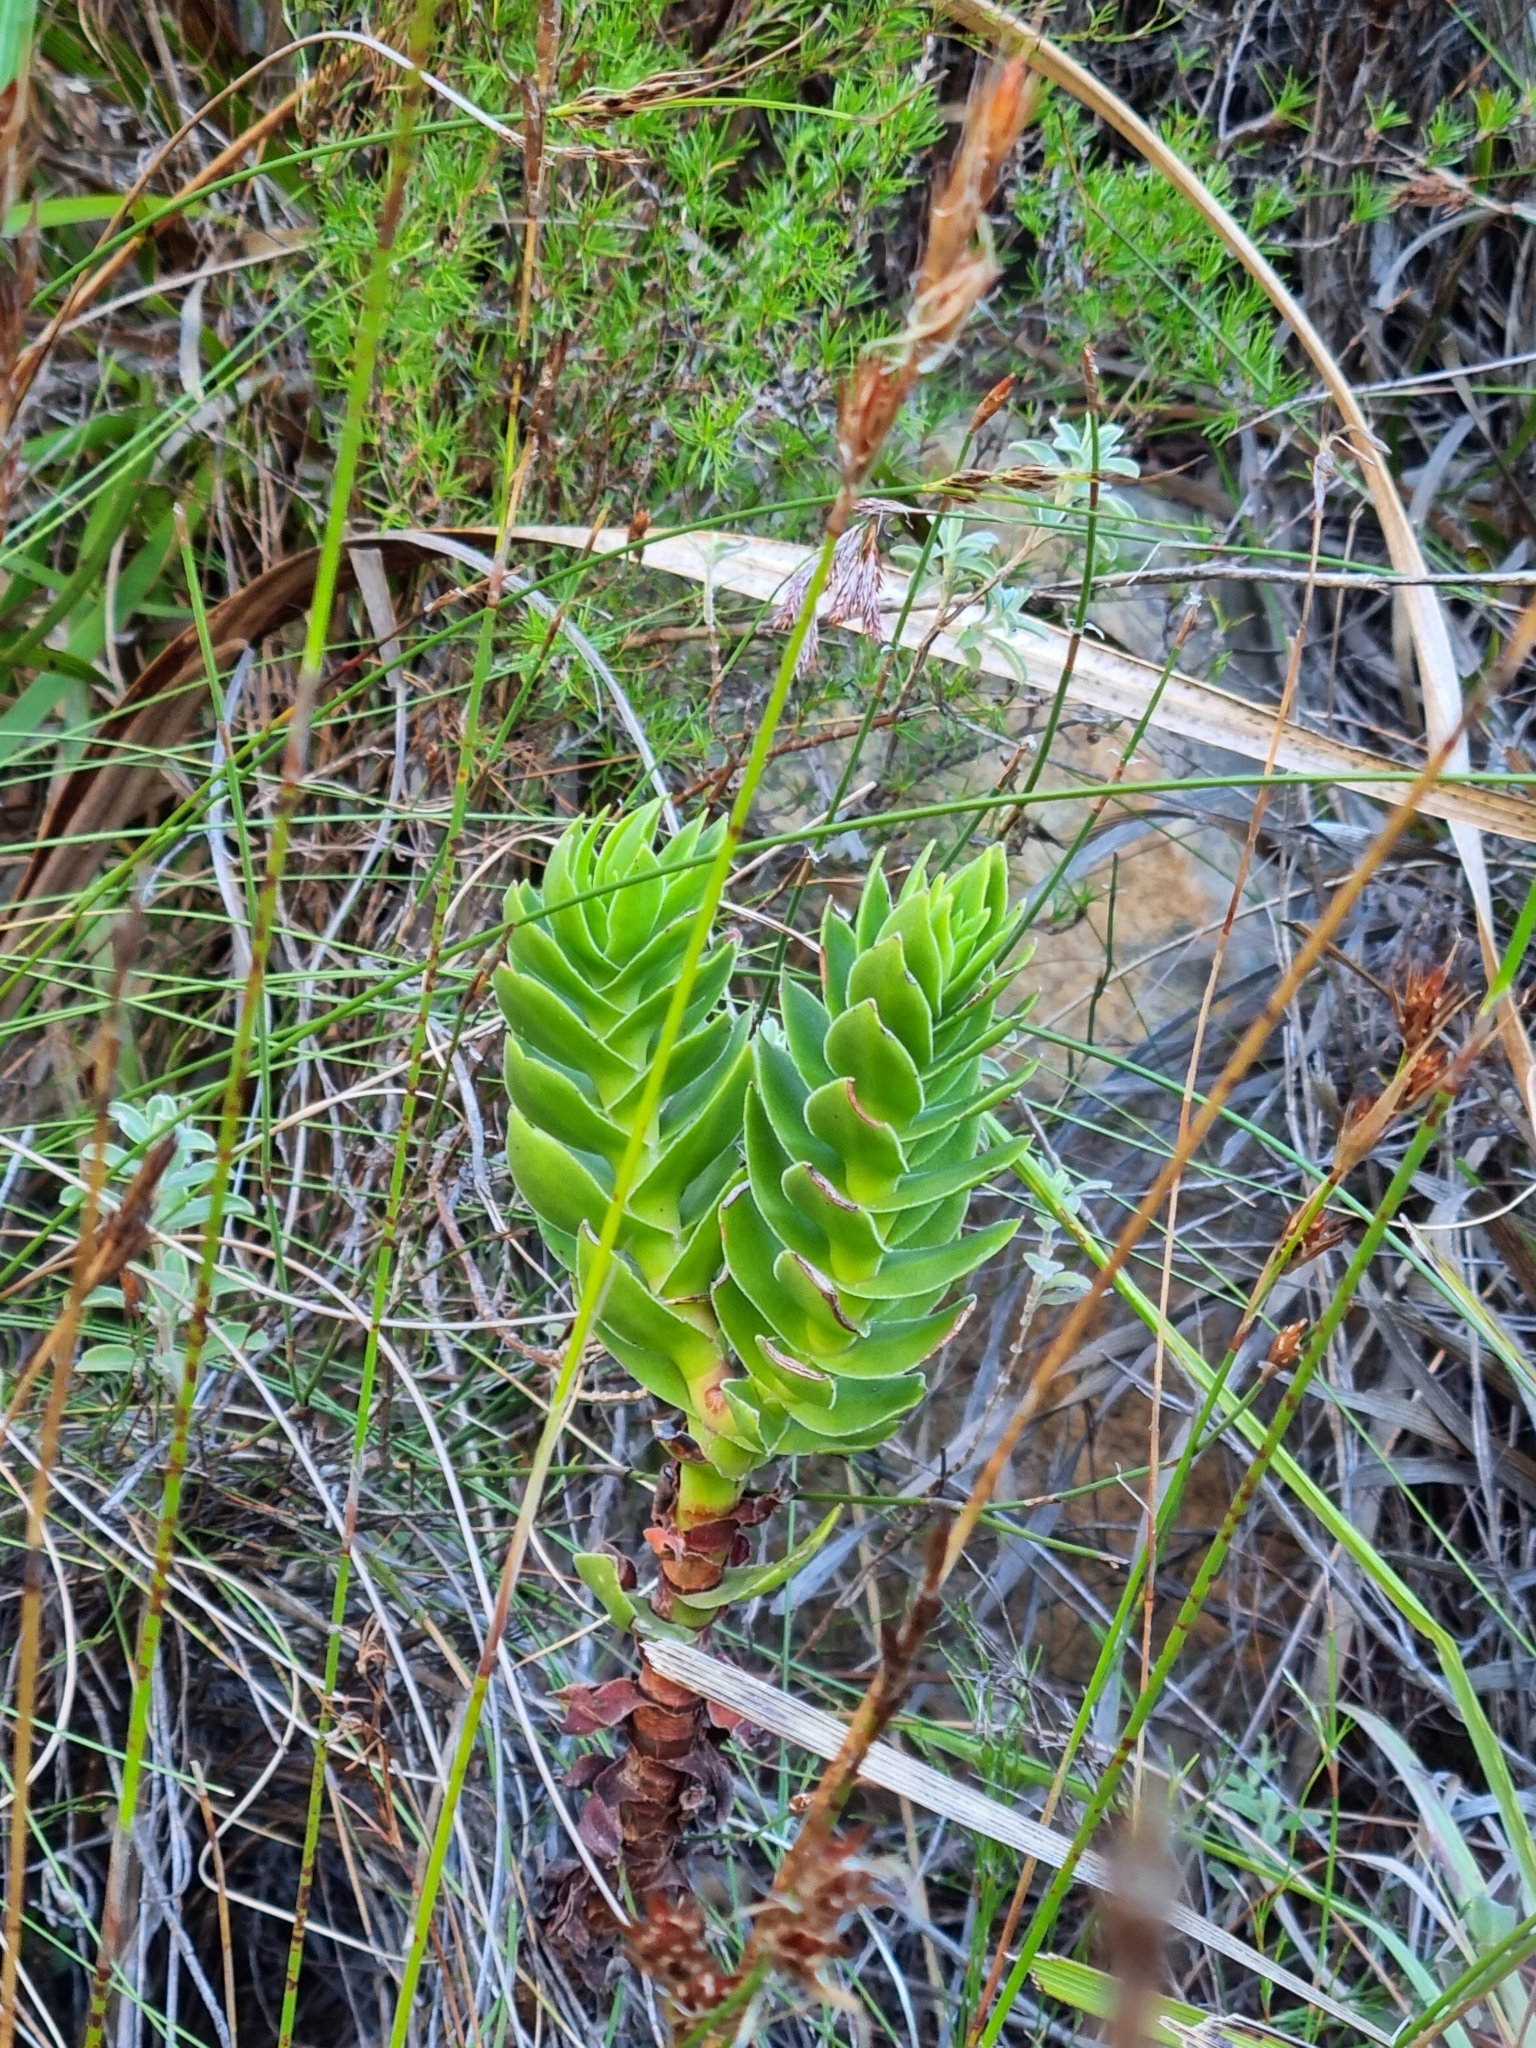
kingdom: Plantae
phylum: Tracheophyta
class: Magnoliopsida
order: Saxifragales
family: Crassulaceae
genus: Crassula
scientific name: Crassula coccinea
